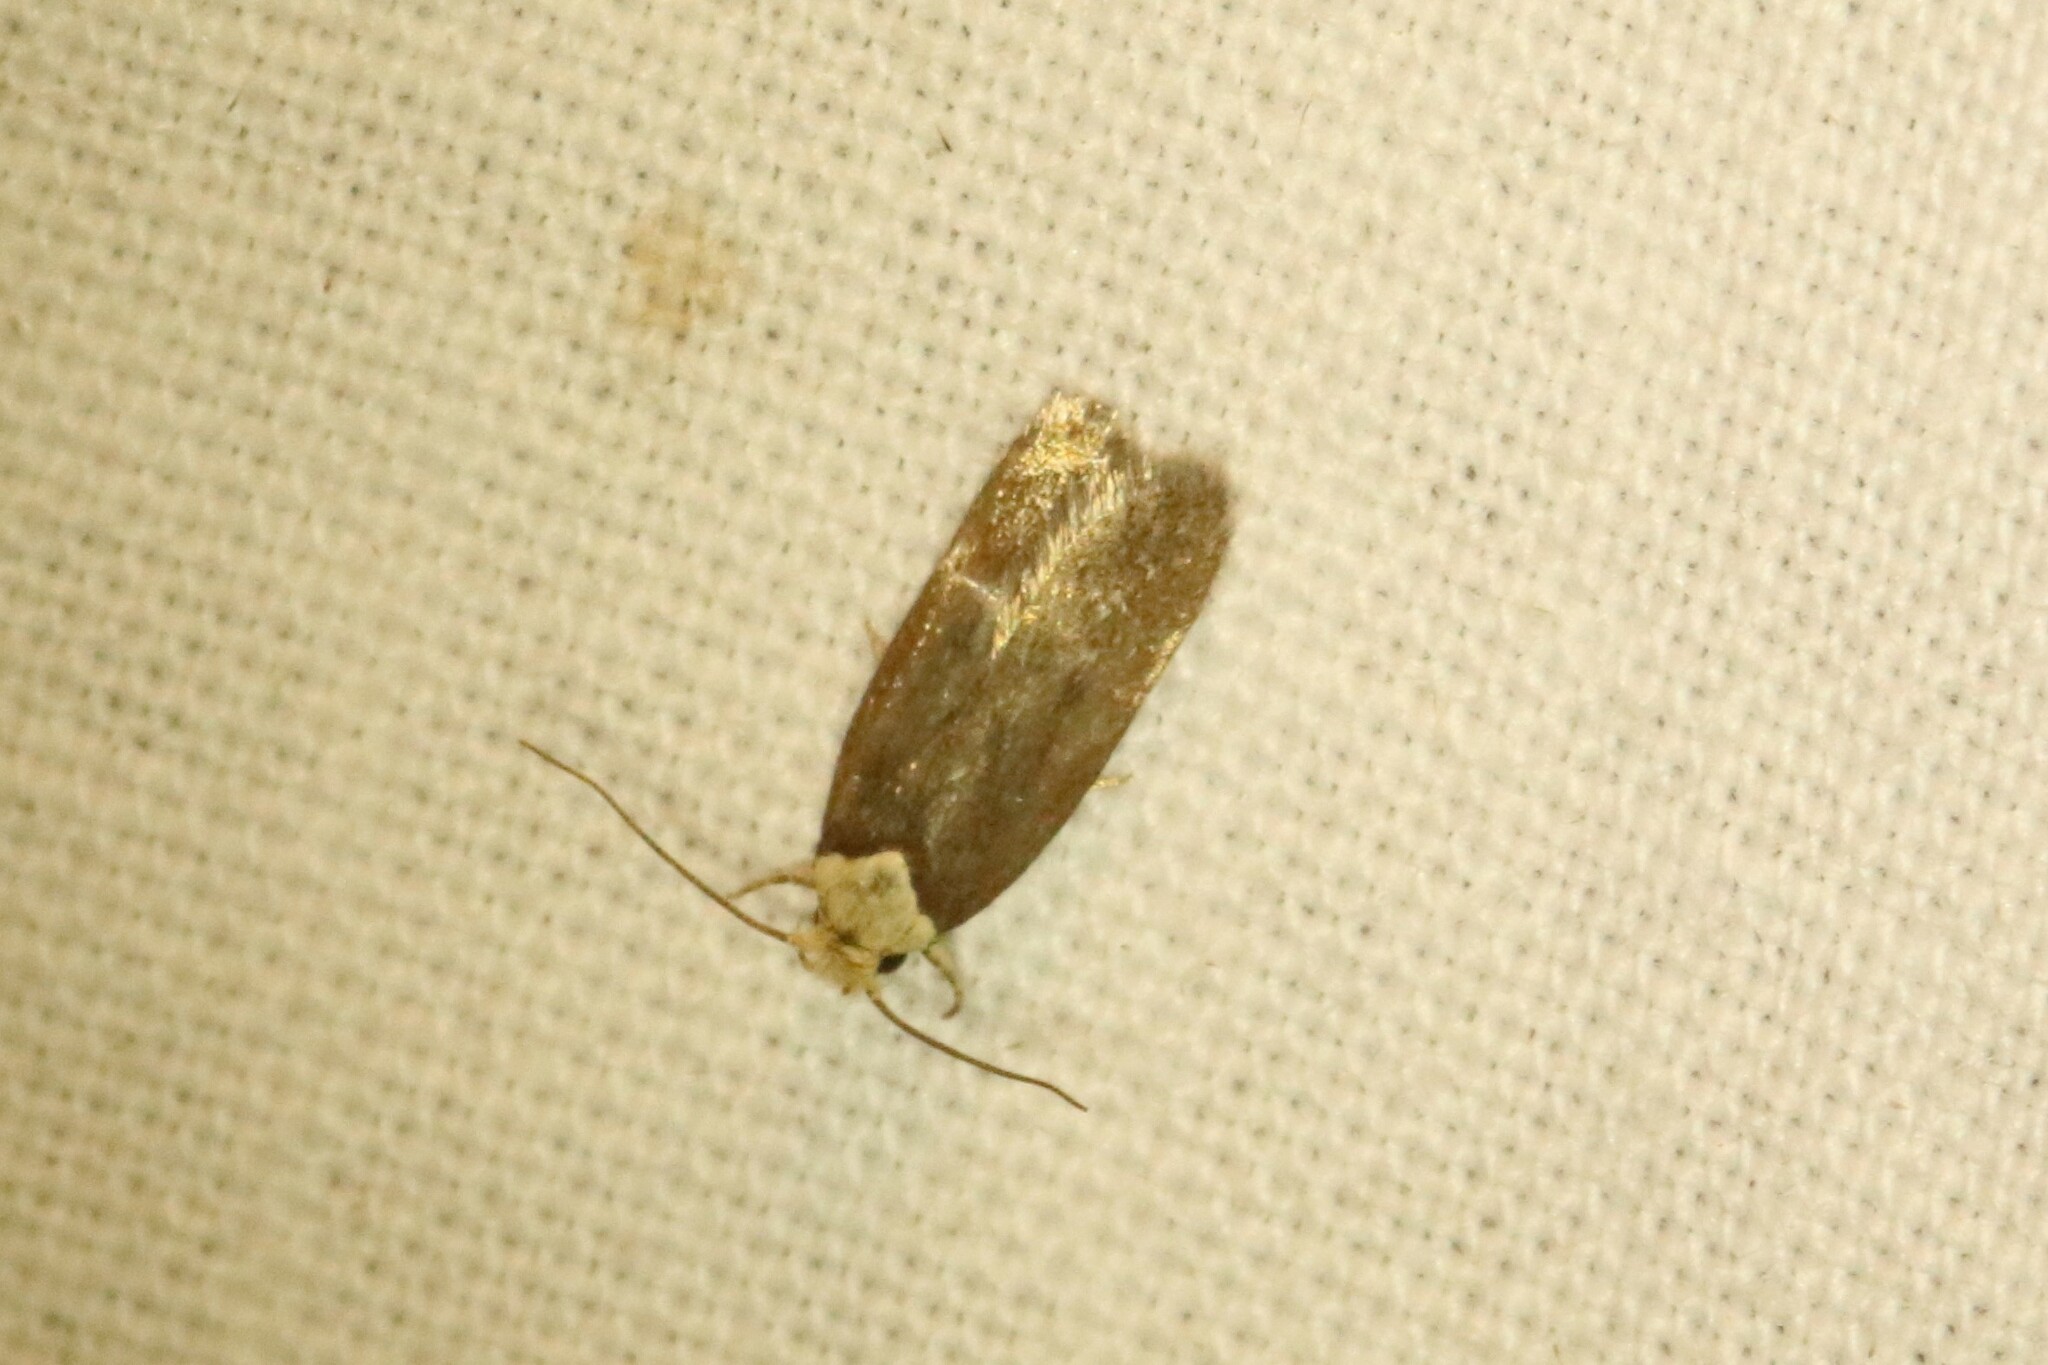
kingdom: Animalia
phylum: Arthropoda
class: Insecta
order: Lepidoptera
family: Depressariidae
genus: Depressaria
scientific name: Depressaria depressana
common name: Lost flat-body
